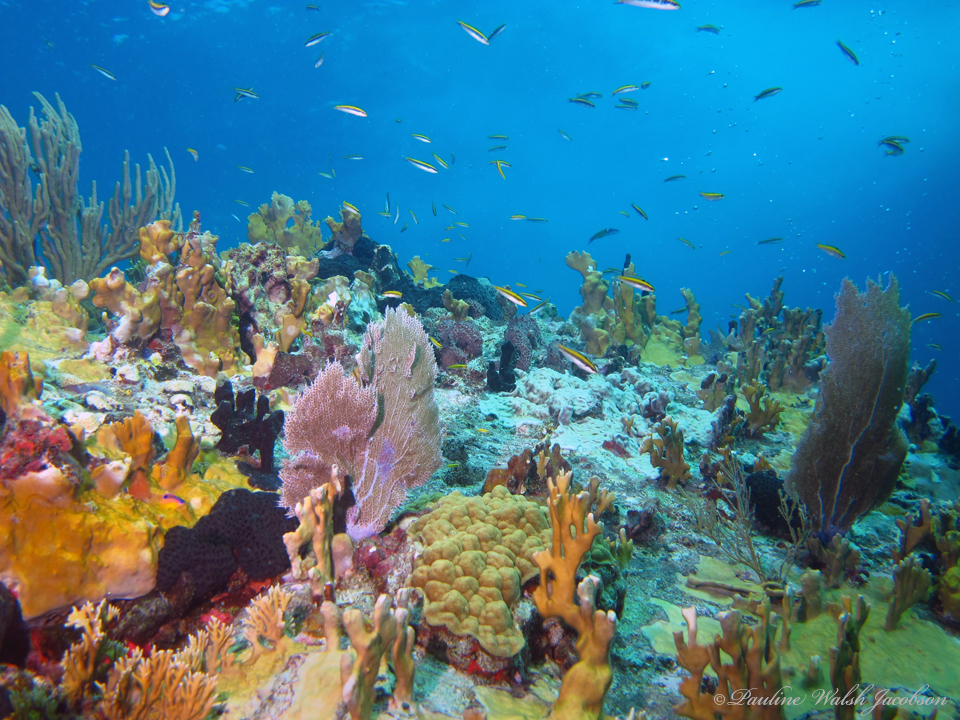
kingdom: Animalia
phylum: Chordata
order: Perciformes
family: Labridae
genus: Thalassoma
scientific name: Thalassoma bifasciatum
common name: Bluehead wrasse
